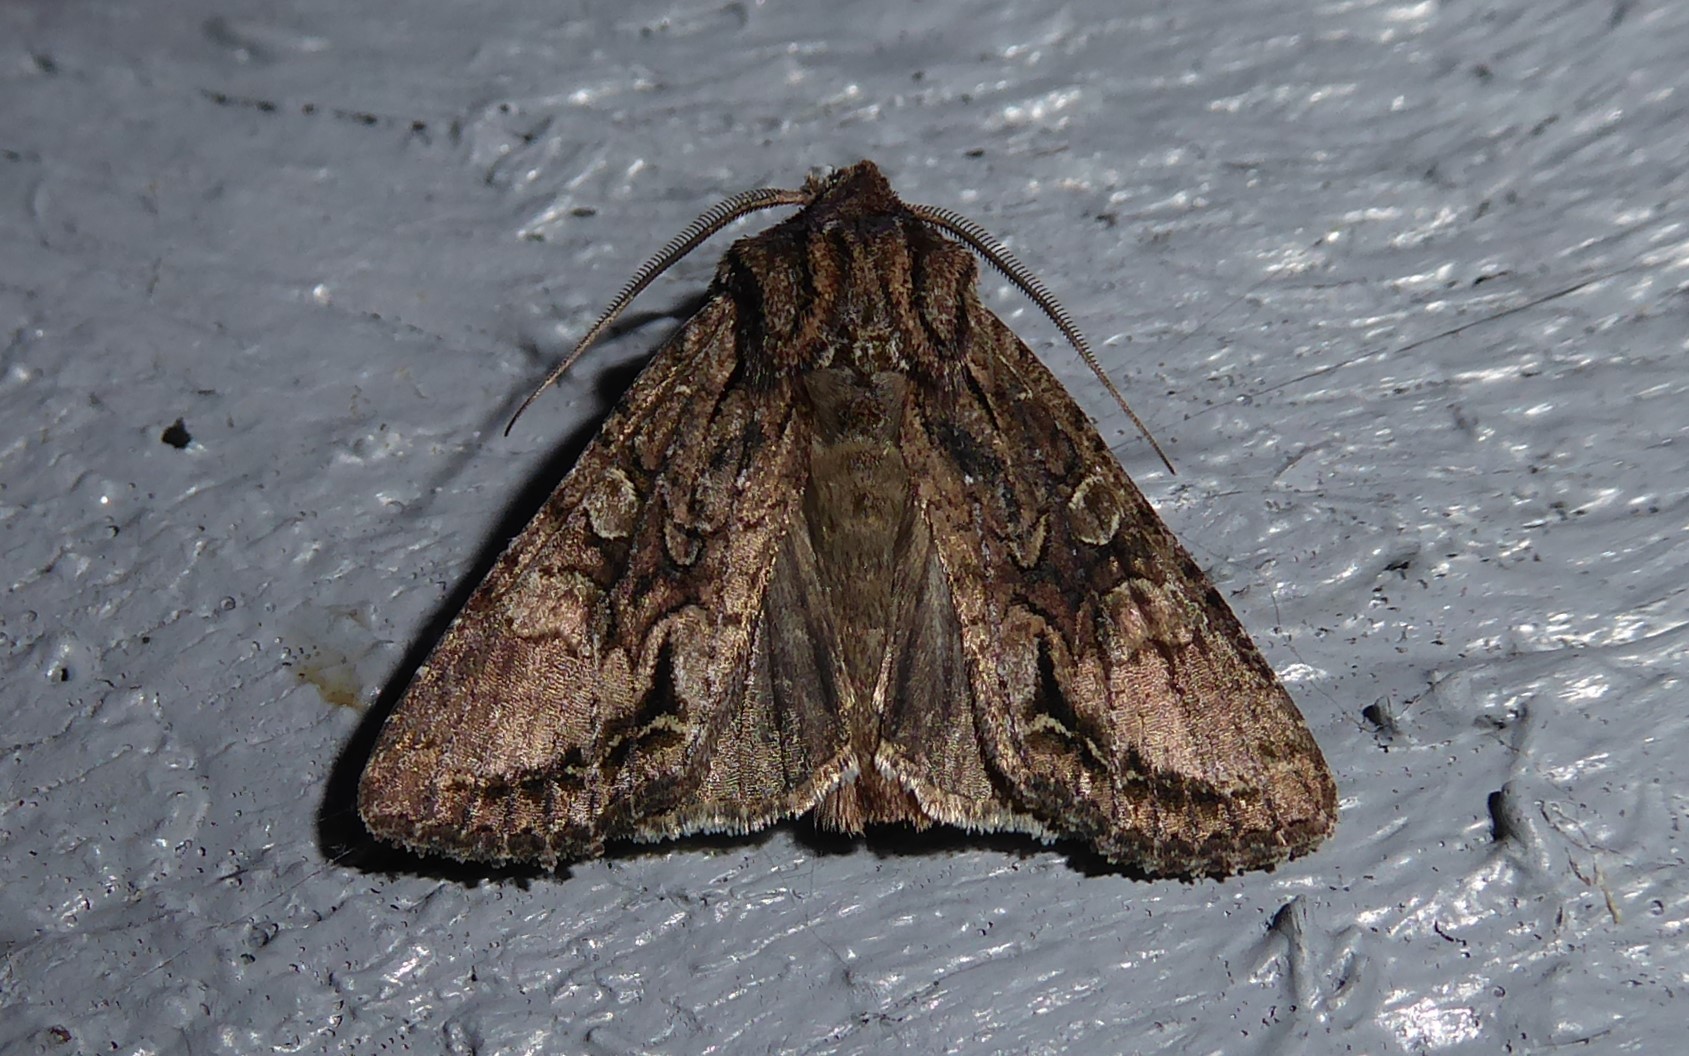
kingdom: Animalia
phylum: Arthropoda
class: Insecta
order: Lepidoptera
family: Noctuidae
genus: Ichneutica
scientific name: Ichneutica mutans
